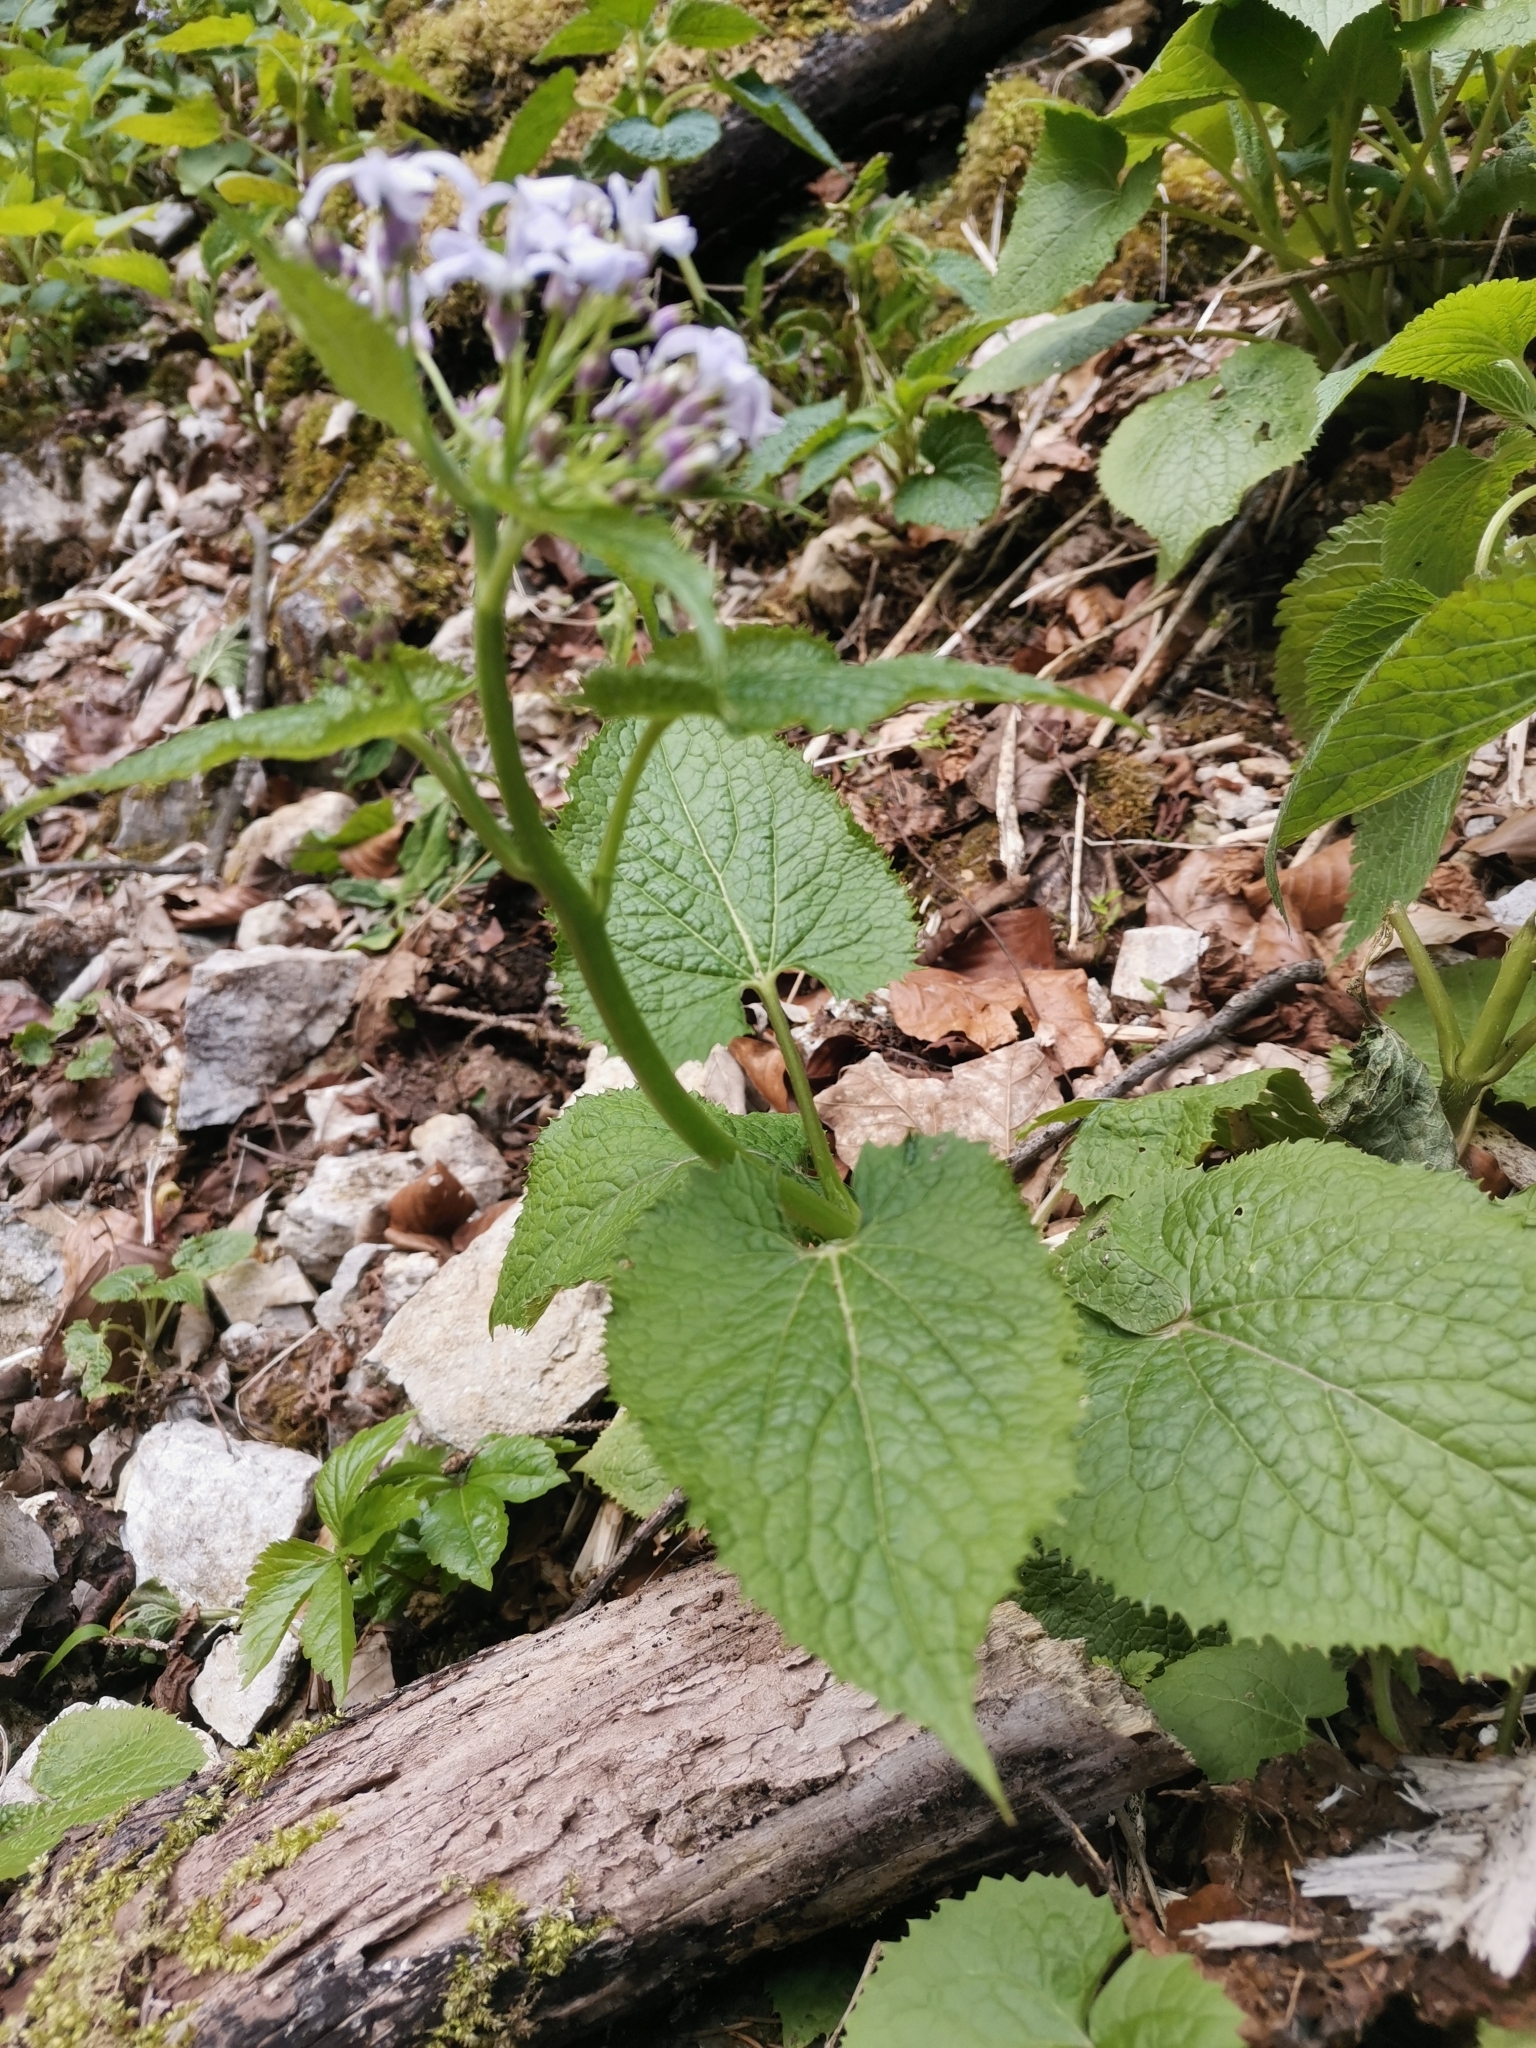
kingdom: Plantae
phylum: Tracheophyta
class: Magnoliopsida
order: Brassicales
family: Brassicaceae
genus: Lunaria
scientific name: Lunaria rediviva
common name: Perennial honesty
